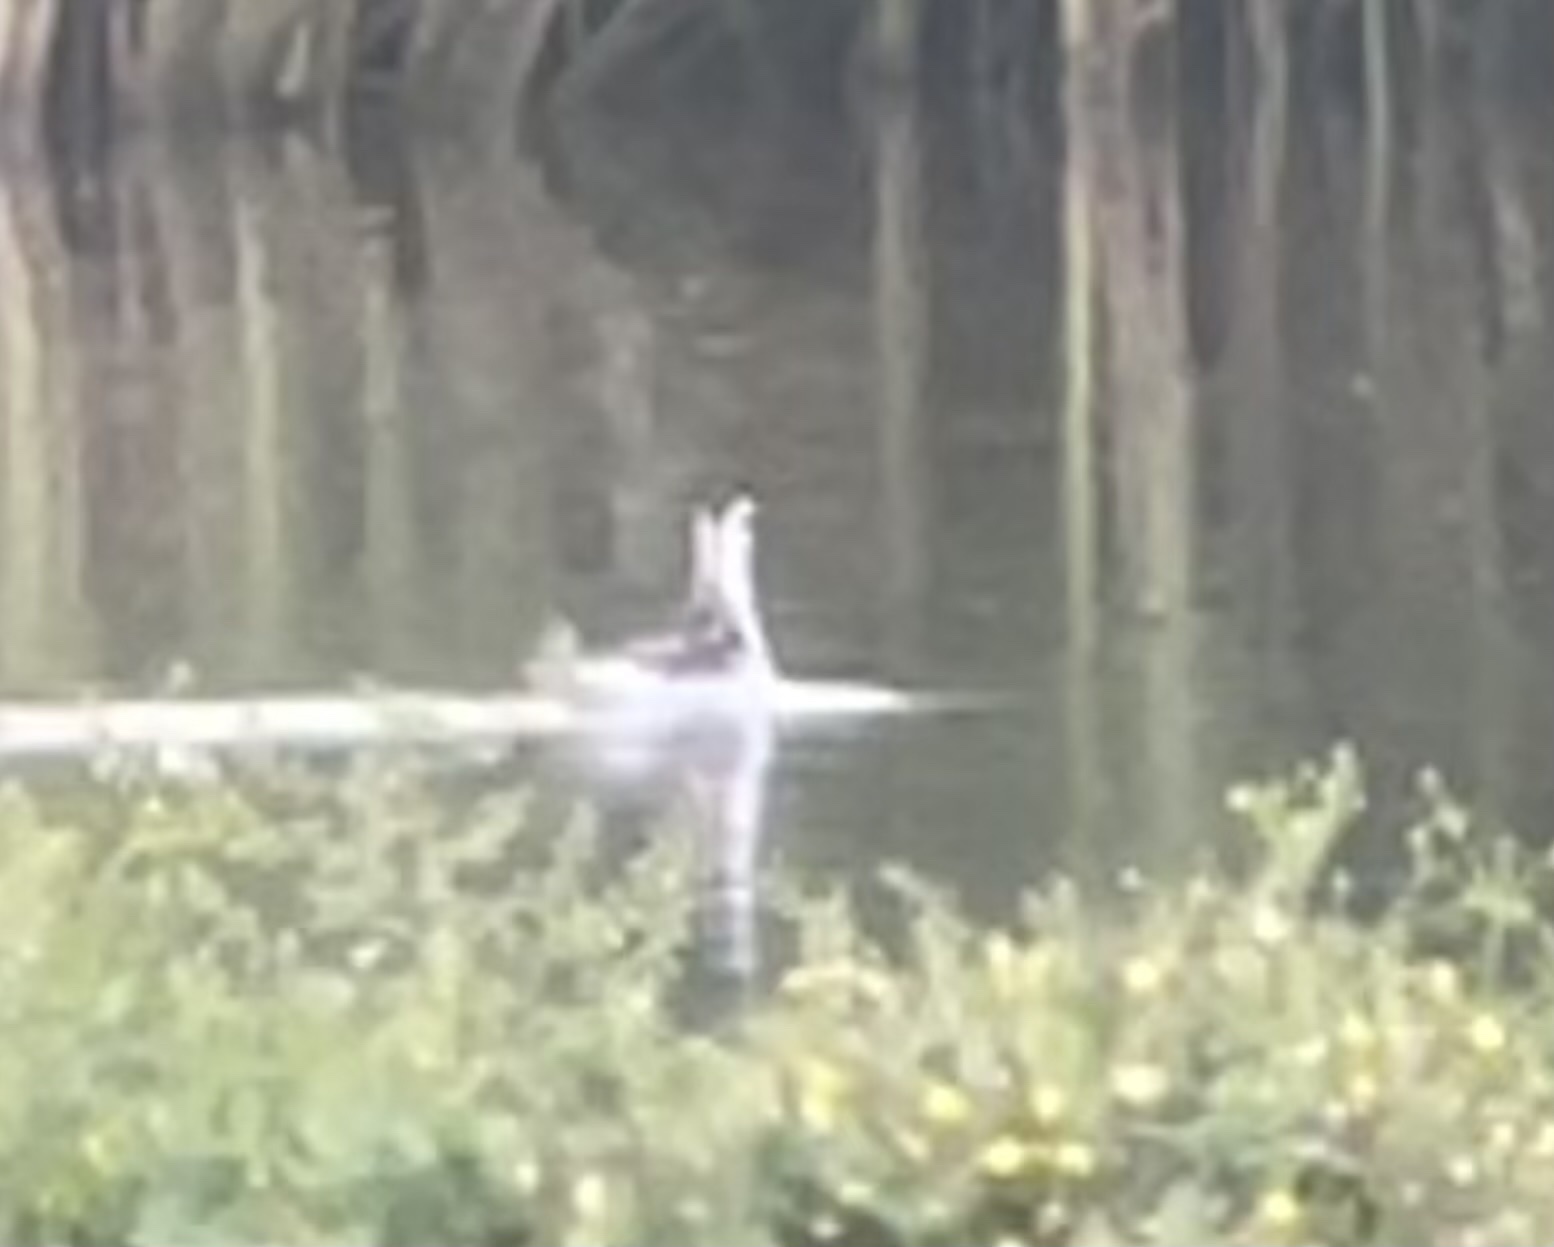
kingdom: Animalia
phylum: Chordata
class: Aves
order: Charadriiformes
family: Scolopacidae
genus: Phalaropus
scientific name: Phalaropus lobatus
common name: Red-necked phalarope
